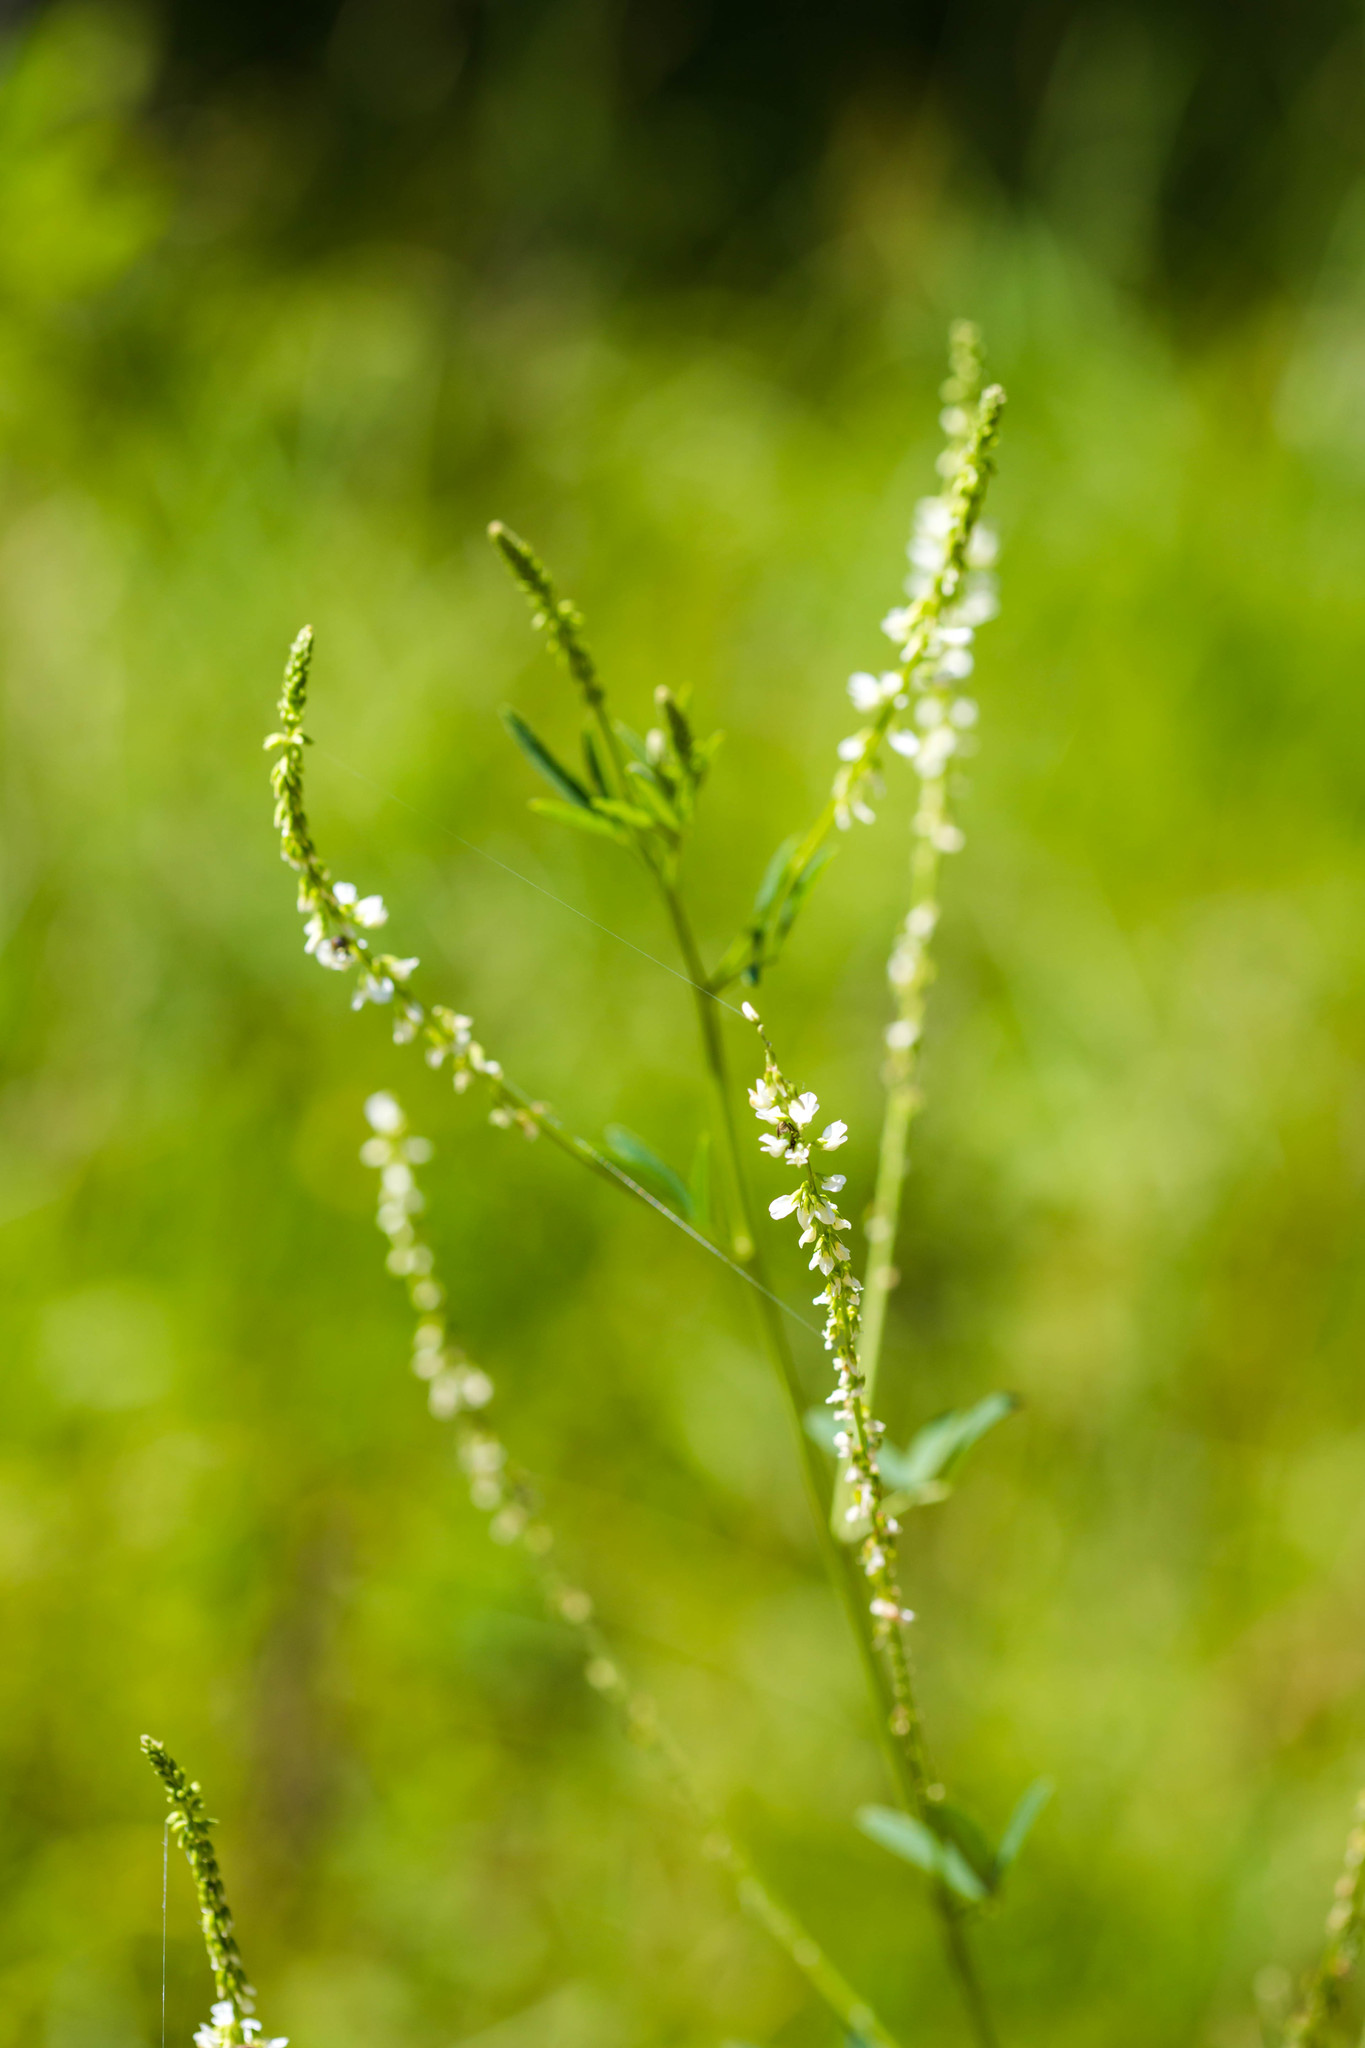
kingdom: Plantae
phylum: Tracheophyta
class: Magnoliopsida
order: Fabales
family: Fabaceae
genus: Melilotus
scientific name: Melilotus albus
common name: White melilot
